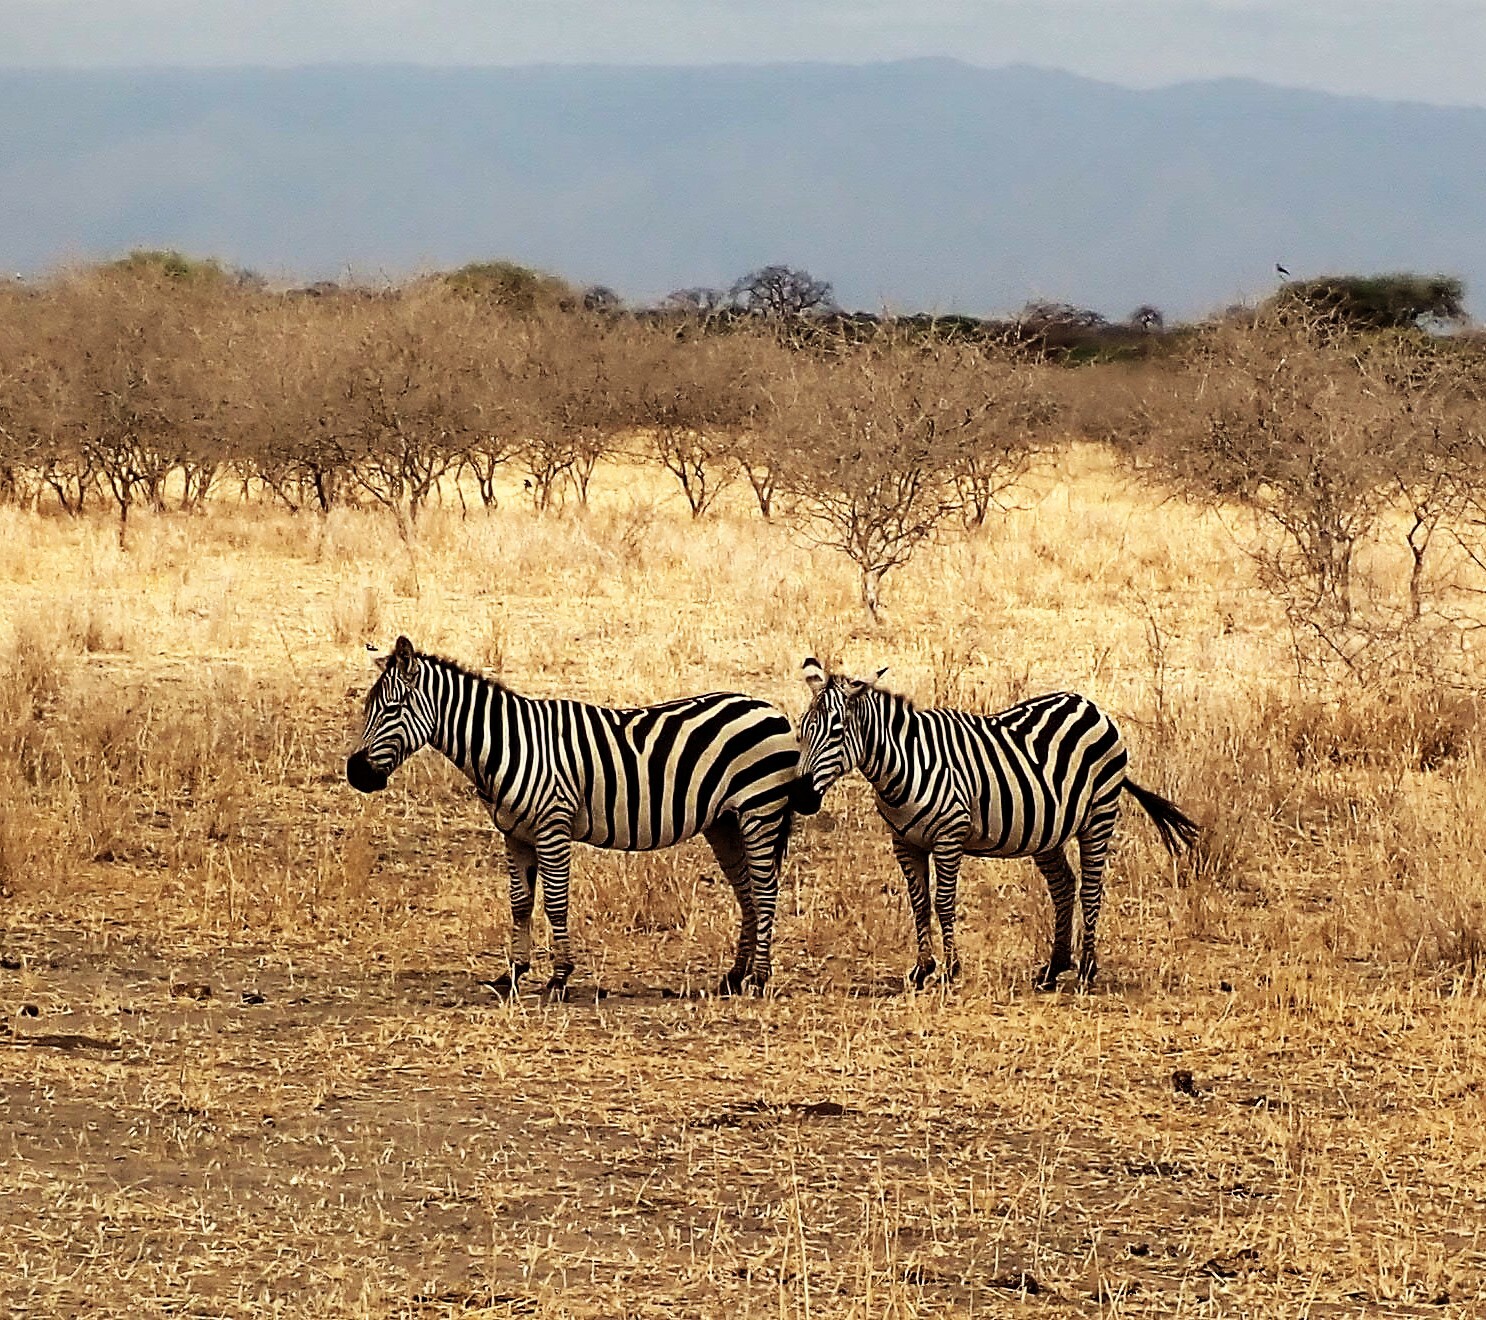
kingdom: Animalia
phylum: Chordata
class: Mammalia
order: Perissodactyla
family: Equidae
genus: Equus
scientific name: Equus quagga
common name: Plains zebra
